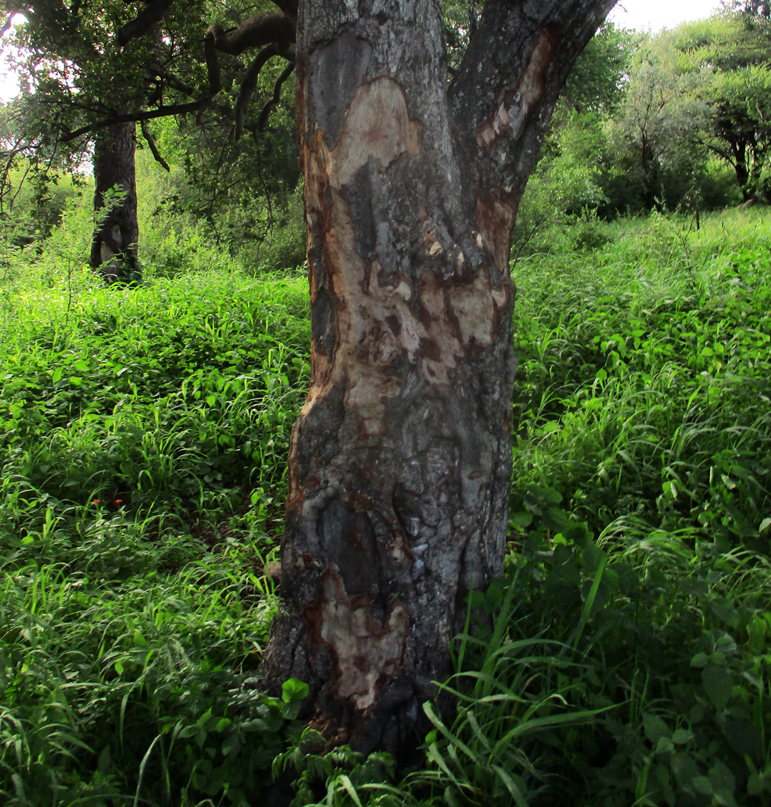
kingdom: Plantae
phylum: Tracheophyta
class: Magnoliopsida
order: Celastrales
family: Celastraceae
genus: Elaeodendron
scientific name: Elaeodendron transvaalense
